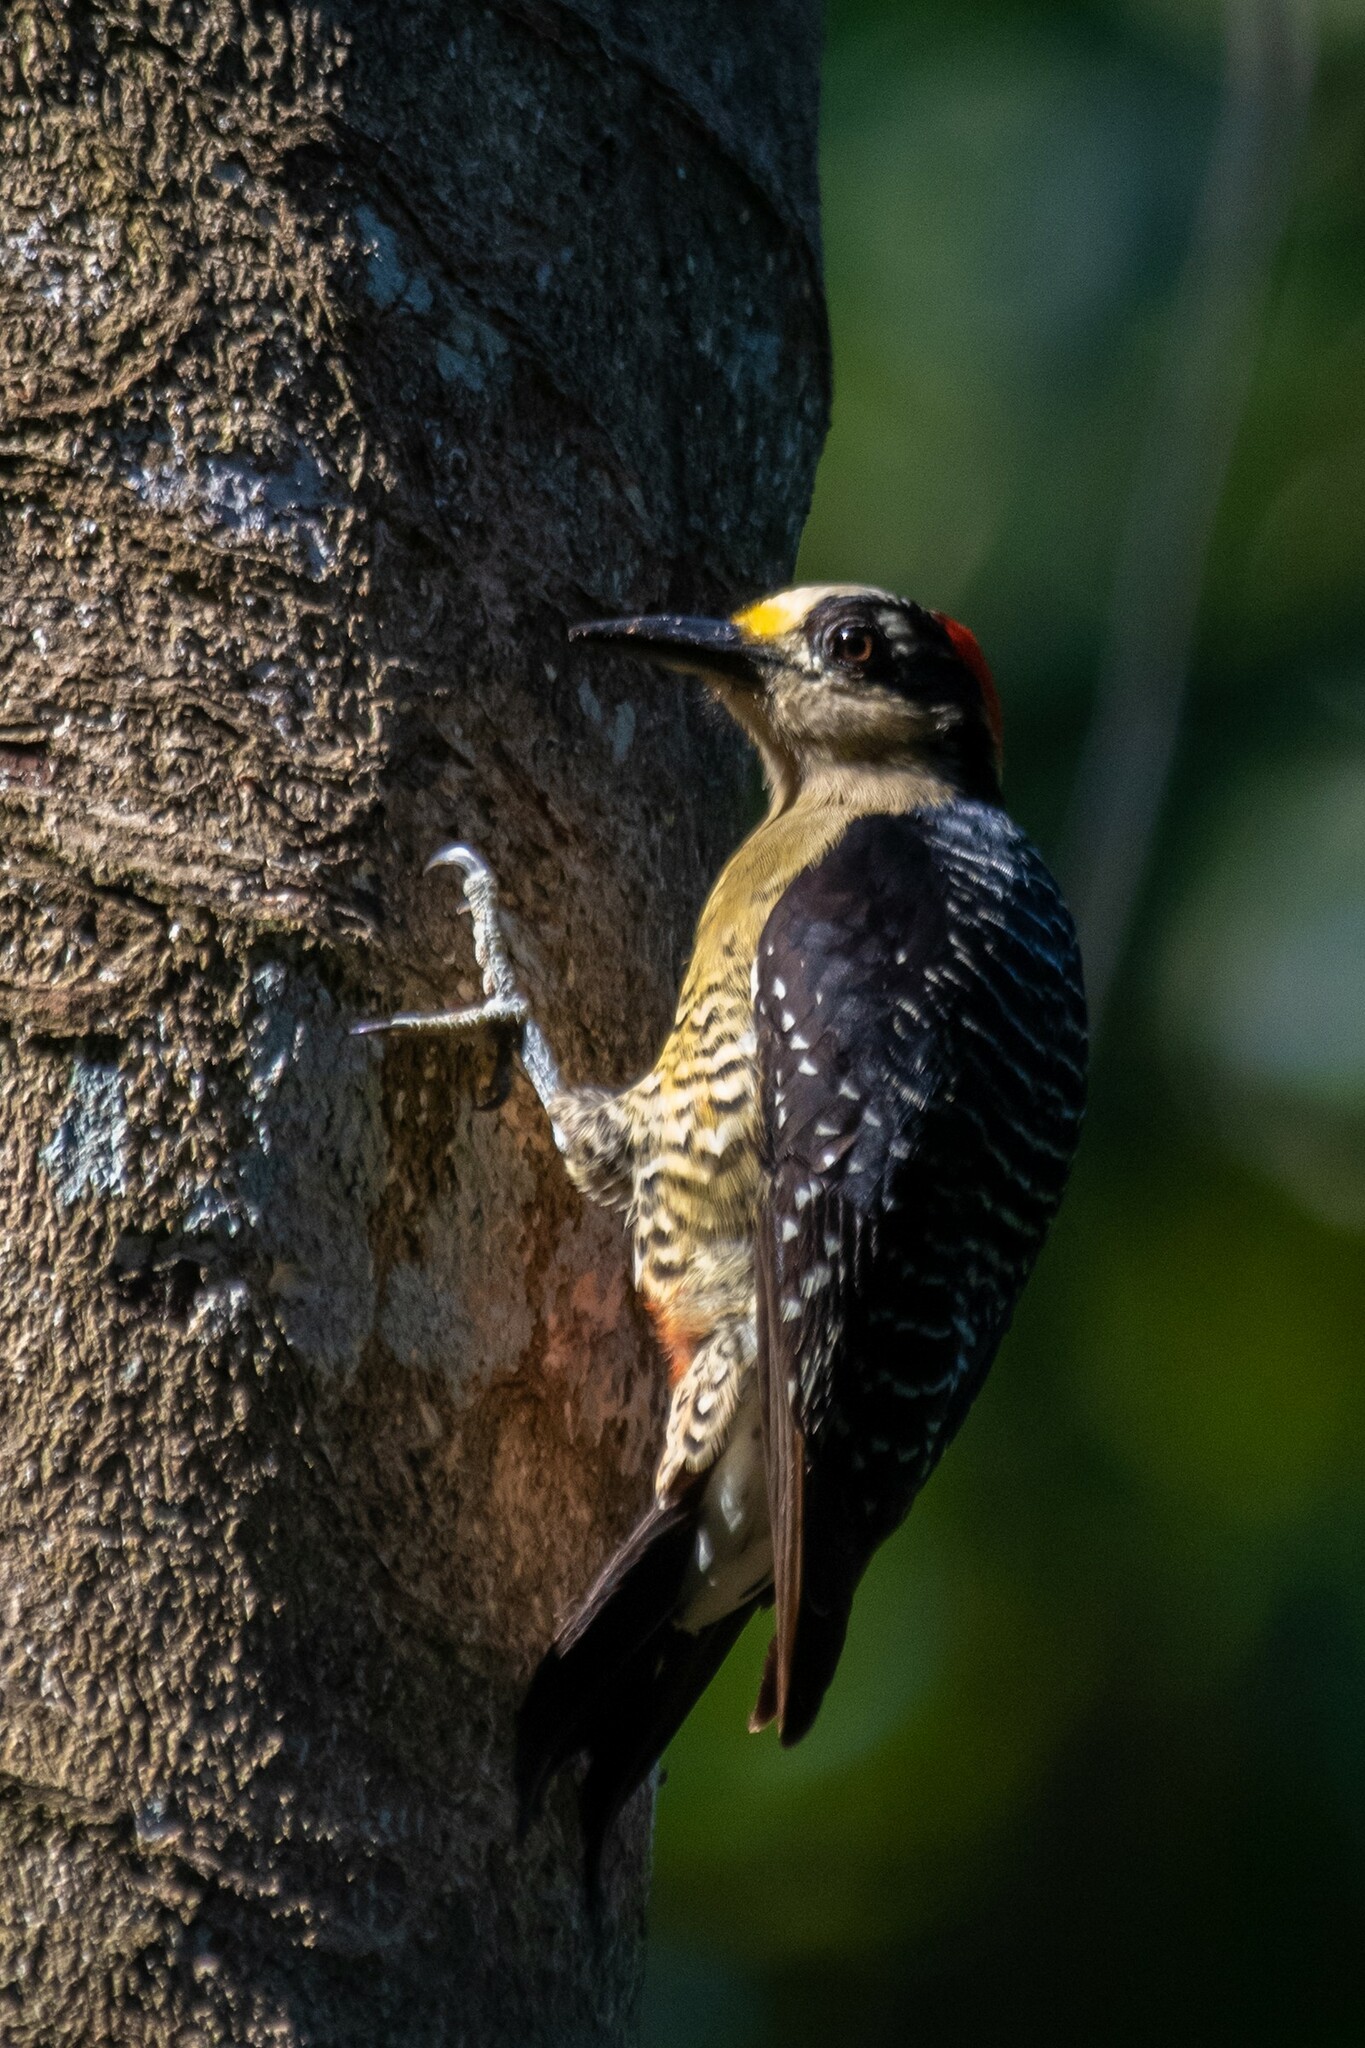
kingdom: Animalia
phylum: Chordata
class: Aves
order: Piciformes
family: Picidae
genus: Melanerpes
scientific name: Melanerpes pucherani
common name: Black-cheeked woodpecker
